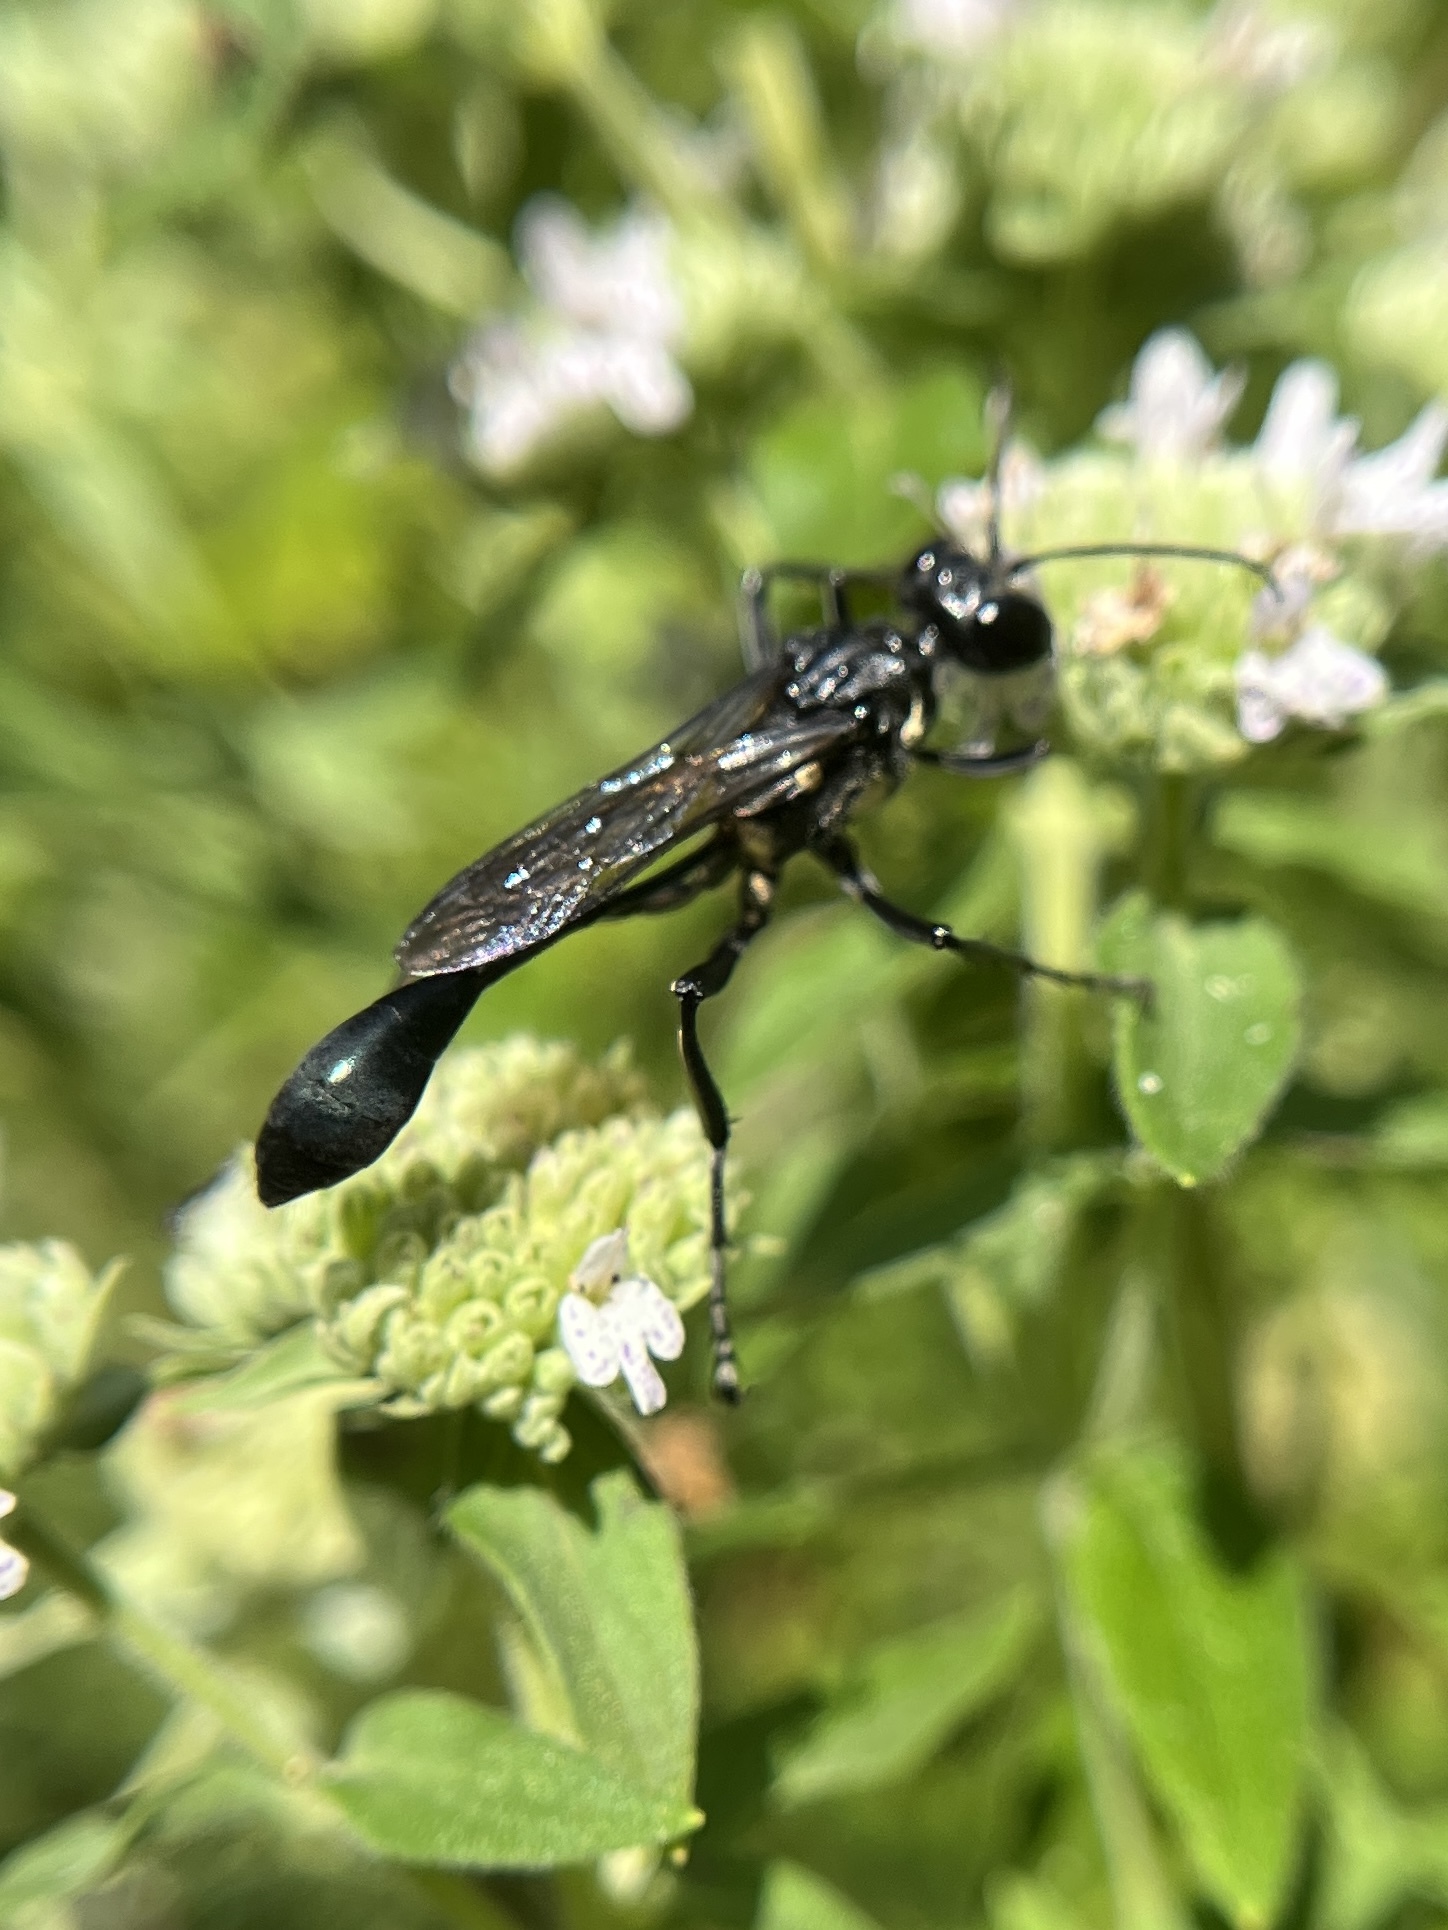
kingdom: Animalia
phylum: Arthropoda
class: Insecta
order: Hymenoptera
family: Sphecidae
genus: Eremnophila
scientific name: Eremnophila aureonotata
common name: Gold-marked thread-waisted wasp
